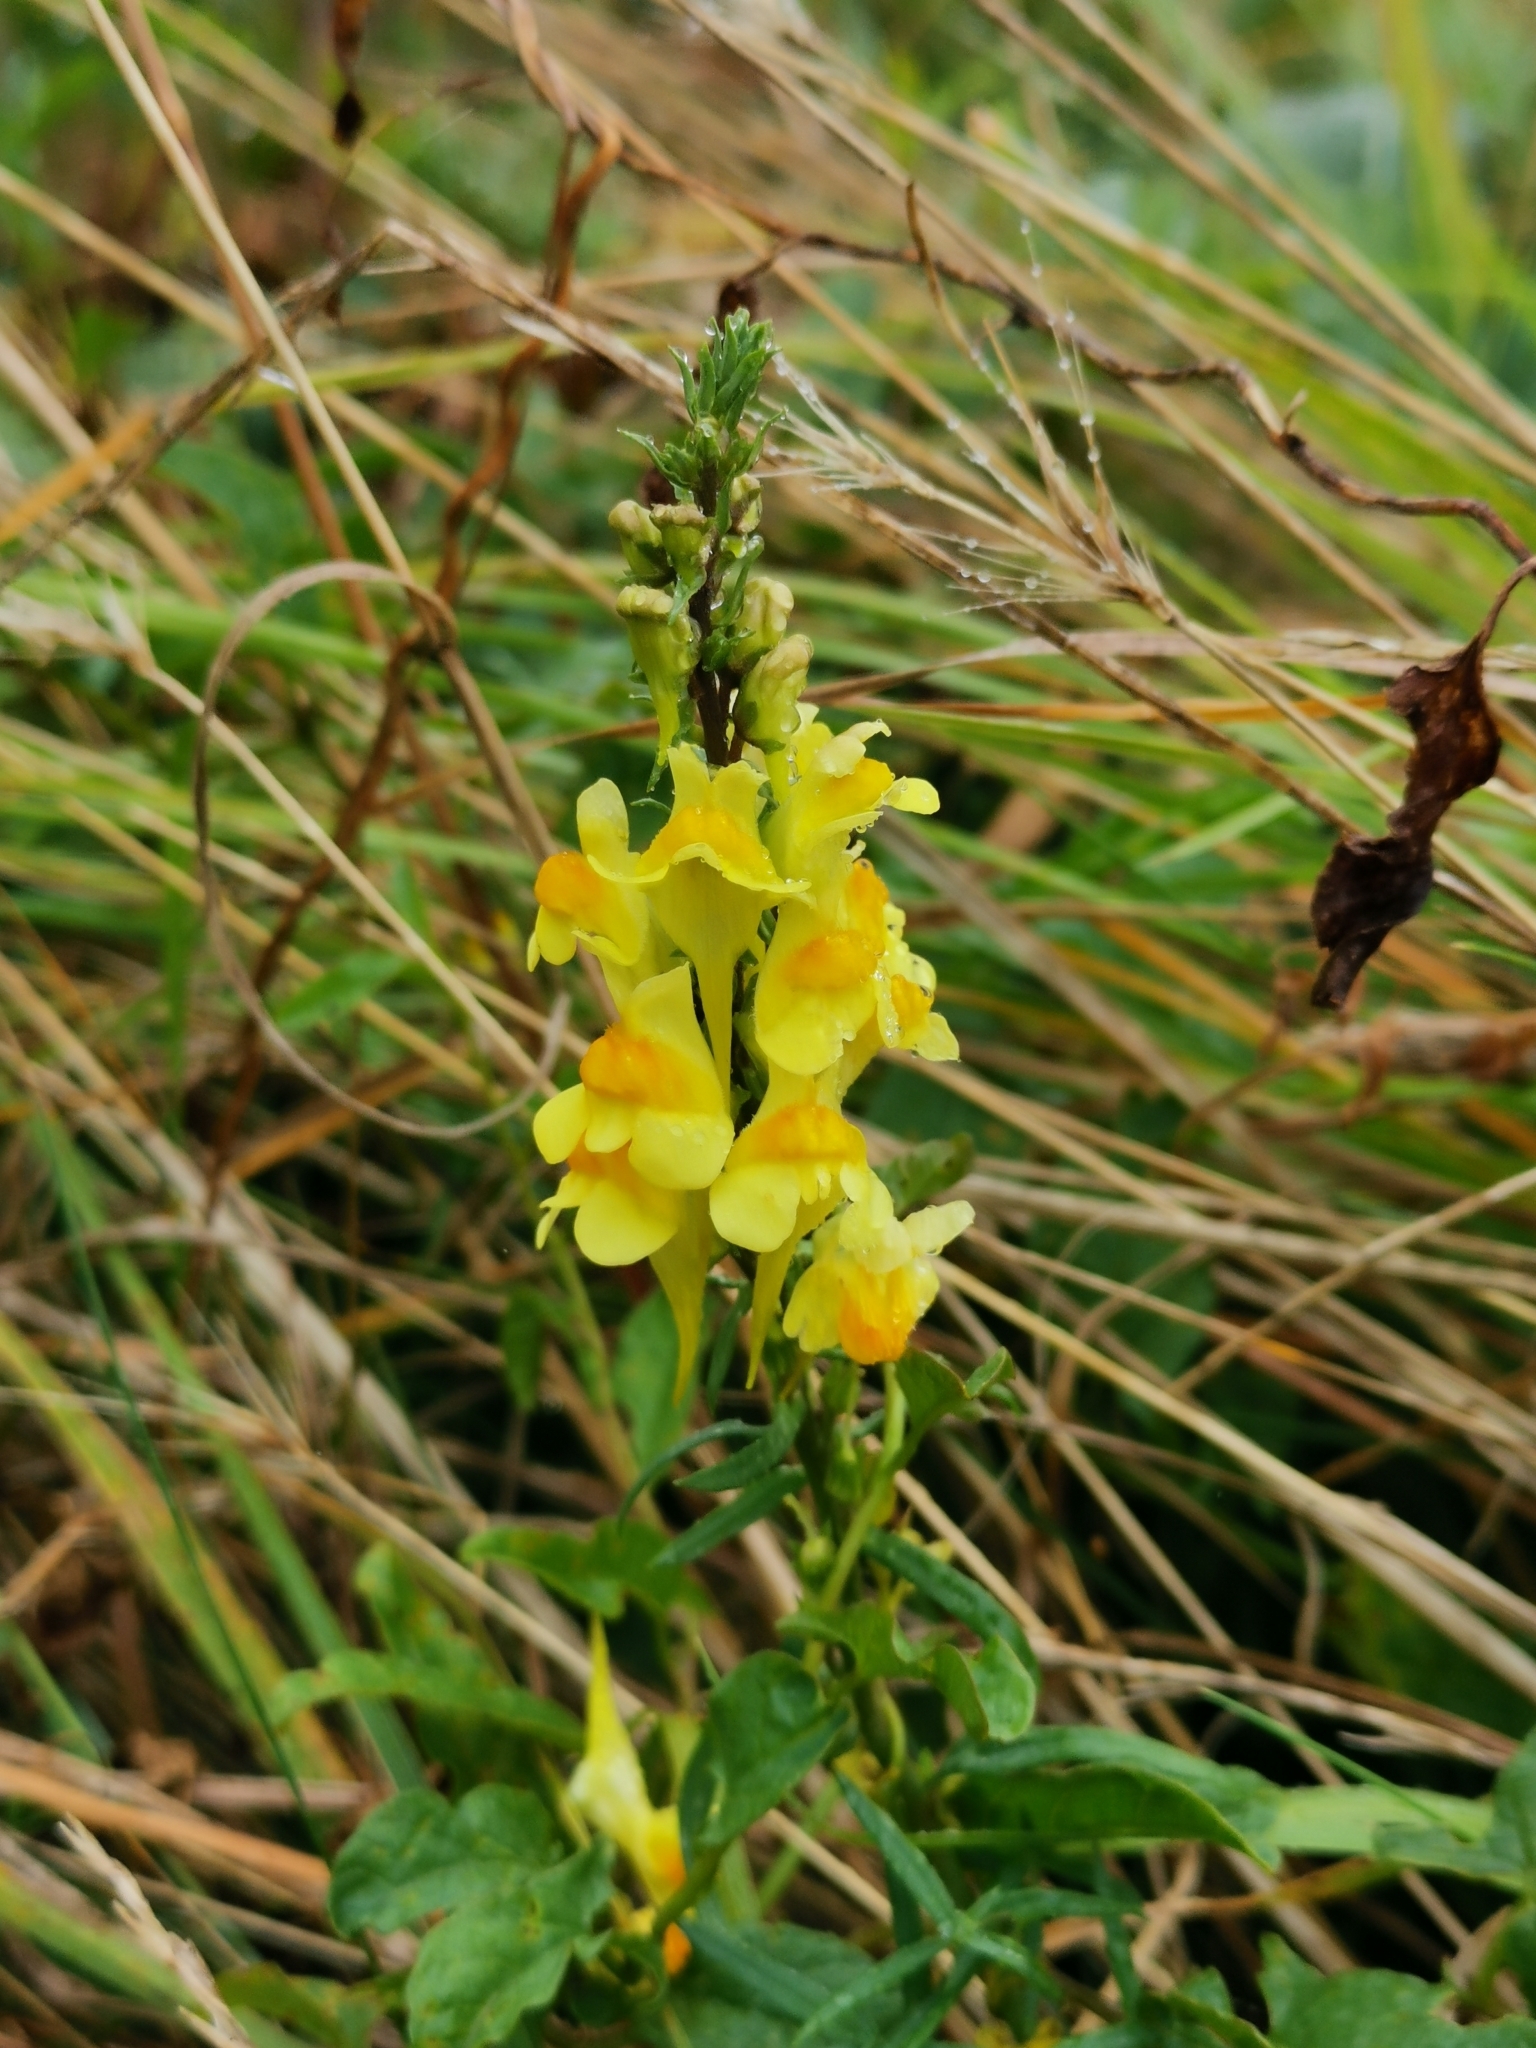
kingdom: Plantae
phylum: Tracheophyta
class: Magnoliopsida
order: Lamiales
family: Plantaginaceae
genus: Linaria
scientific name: Linaria vulgaris
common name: Butter and eggs
